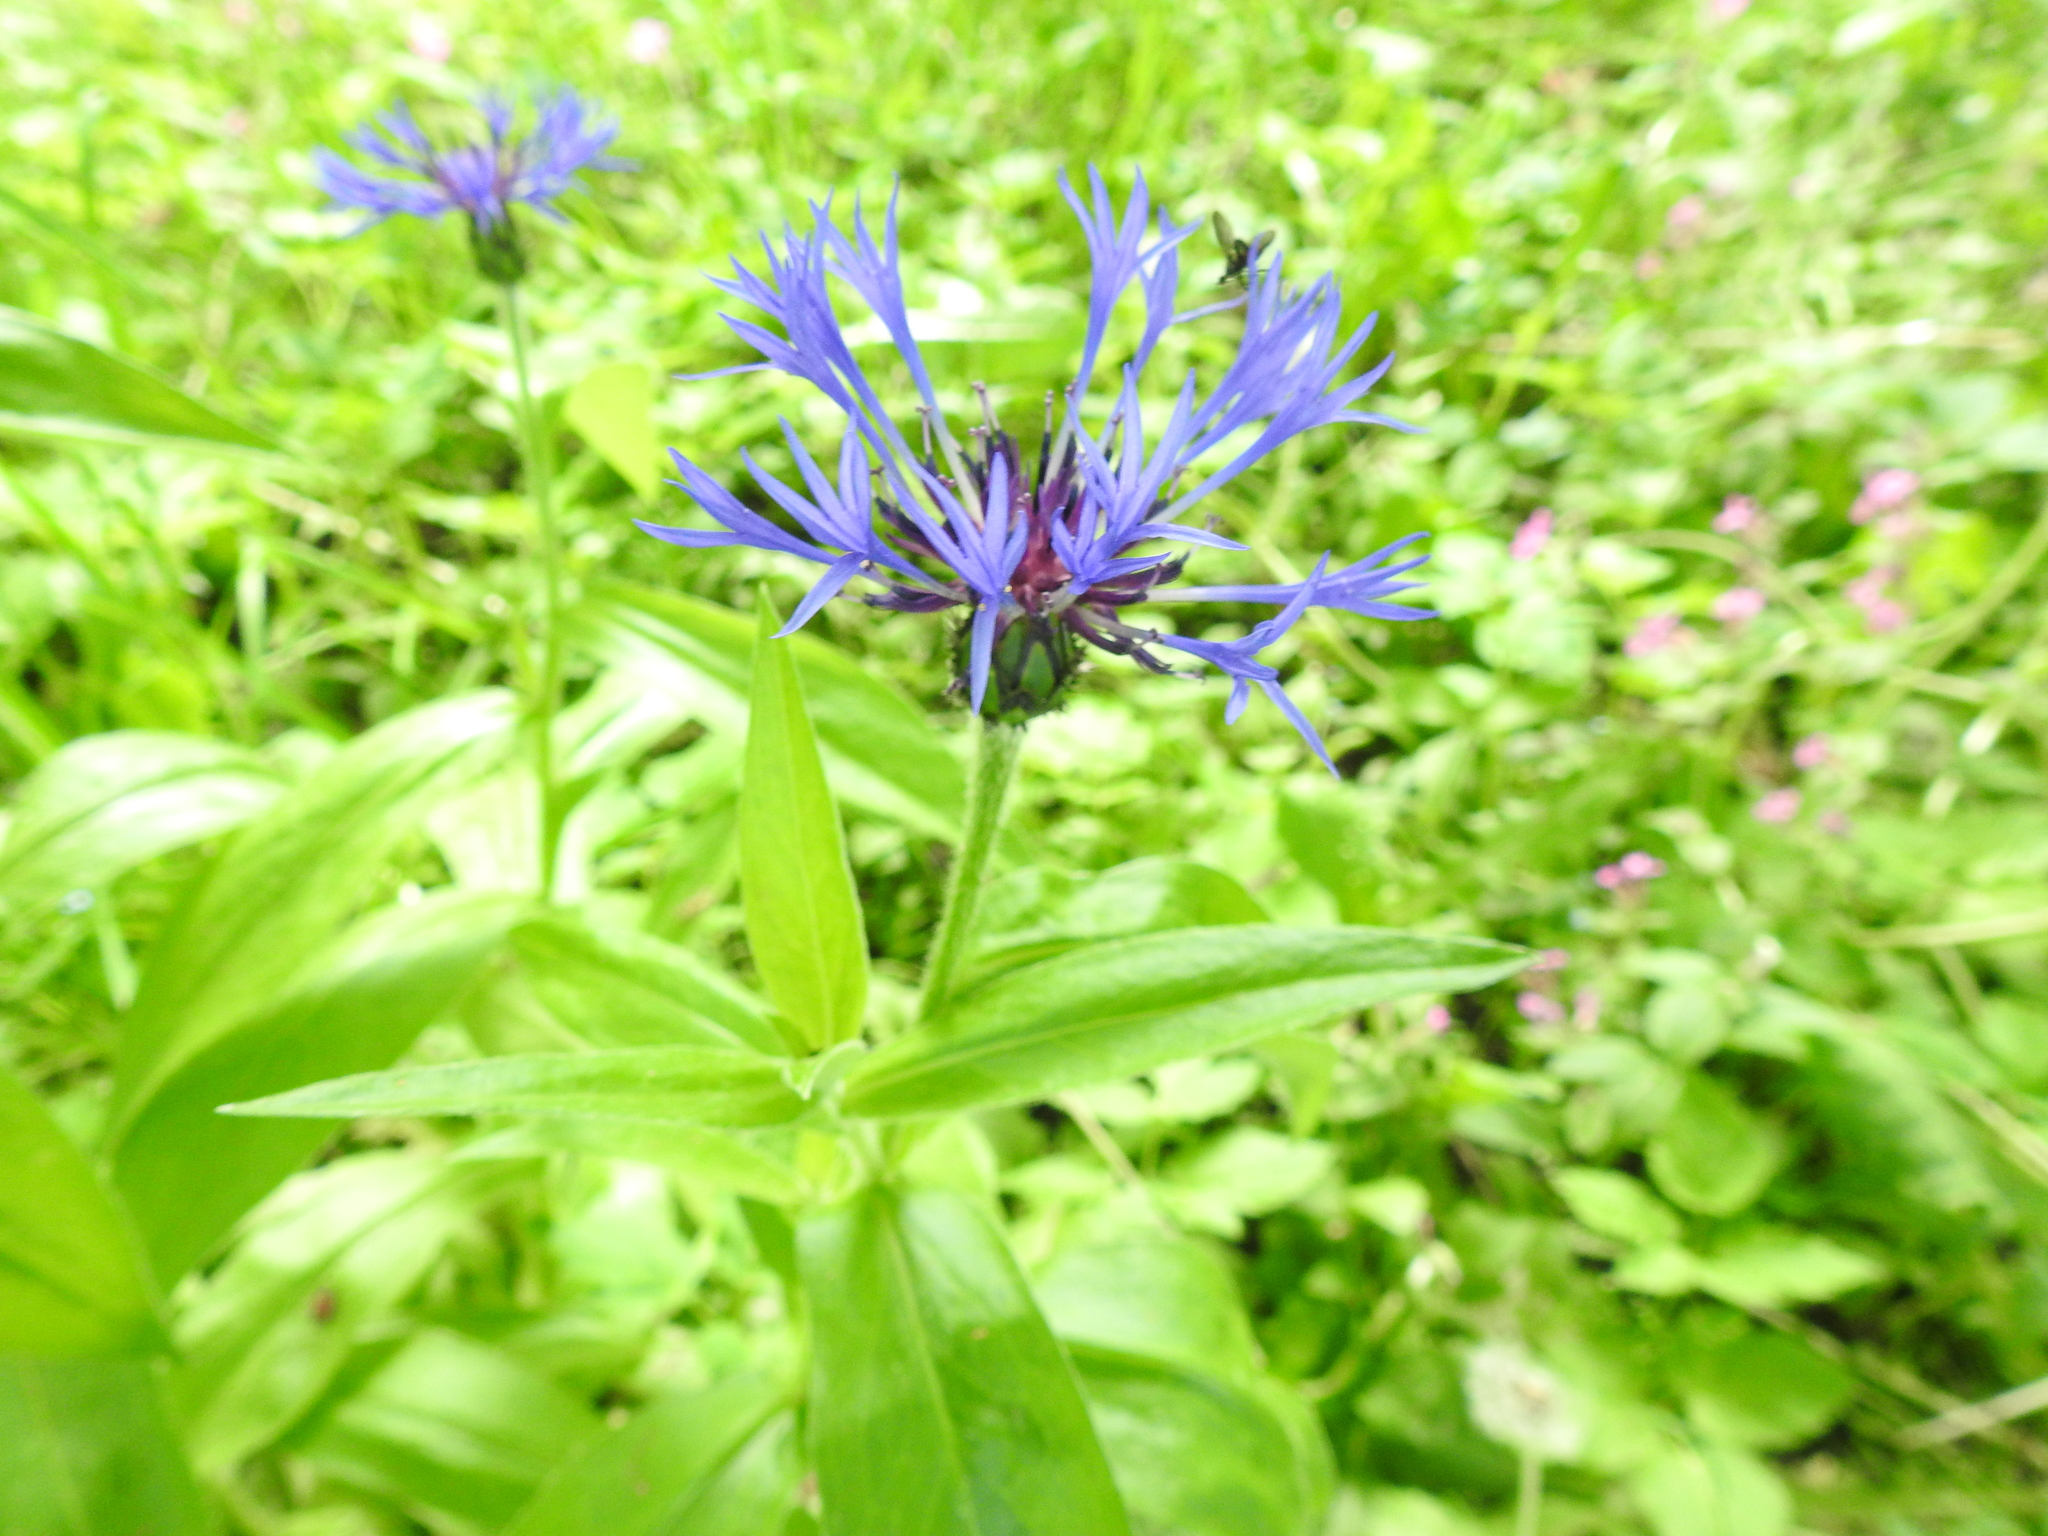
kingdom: Plantae
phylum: Tracheophyta
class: Magnoliopsida
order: Asterales
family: Asteraceae
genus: Centaurea
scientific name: Centaurea montana
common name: Perennial cornflower
